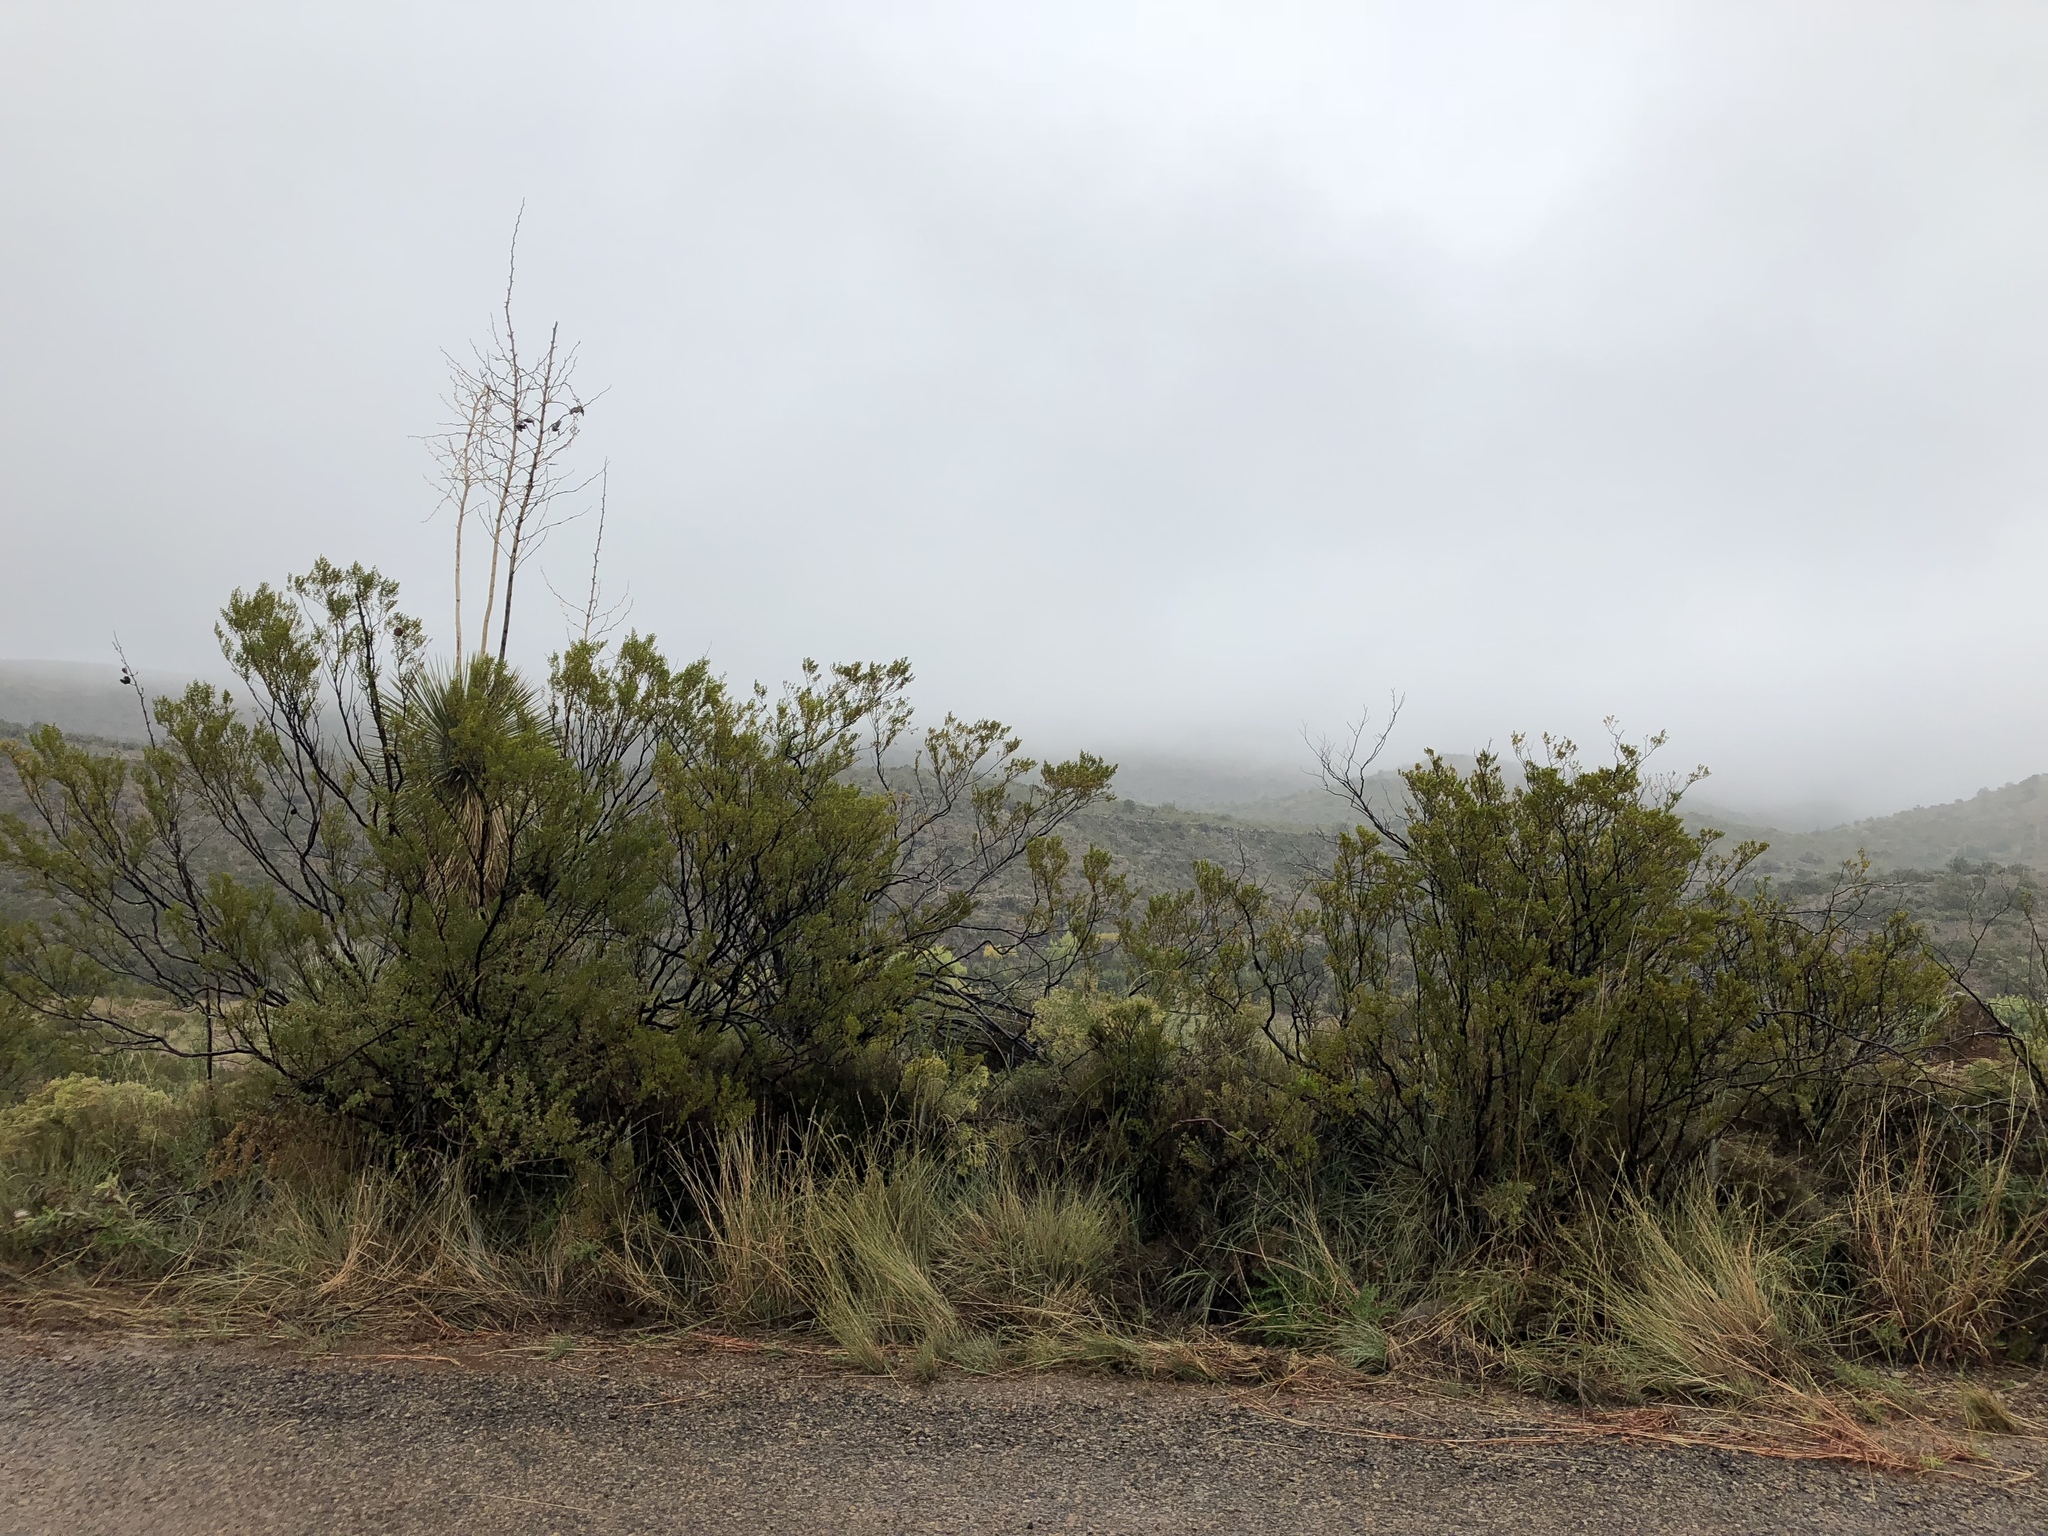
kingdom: Plantae
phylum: Tracheophyta
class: Magnoliopsida
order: Zygophyllales
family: Zygophyllaceae
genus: Larrea
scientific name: Larrea tridentata
